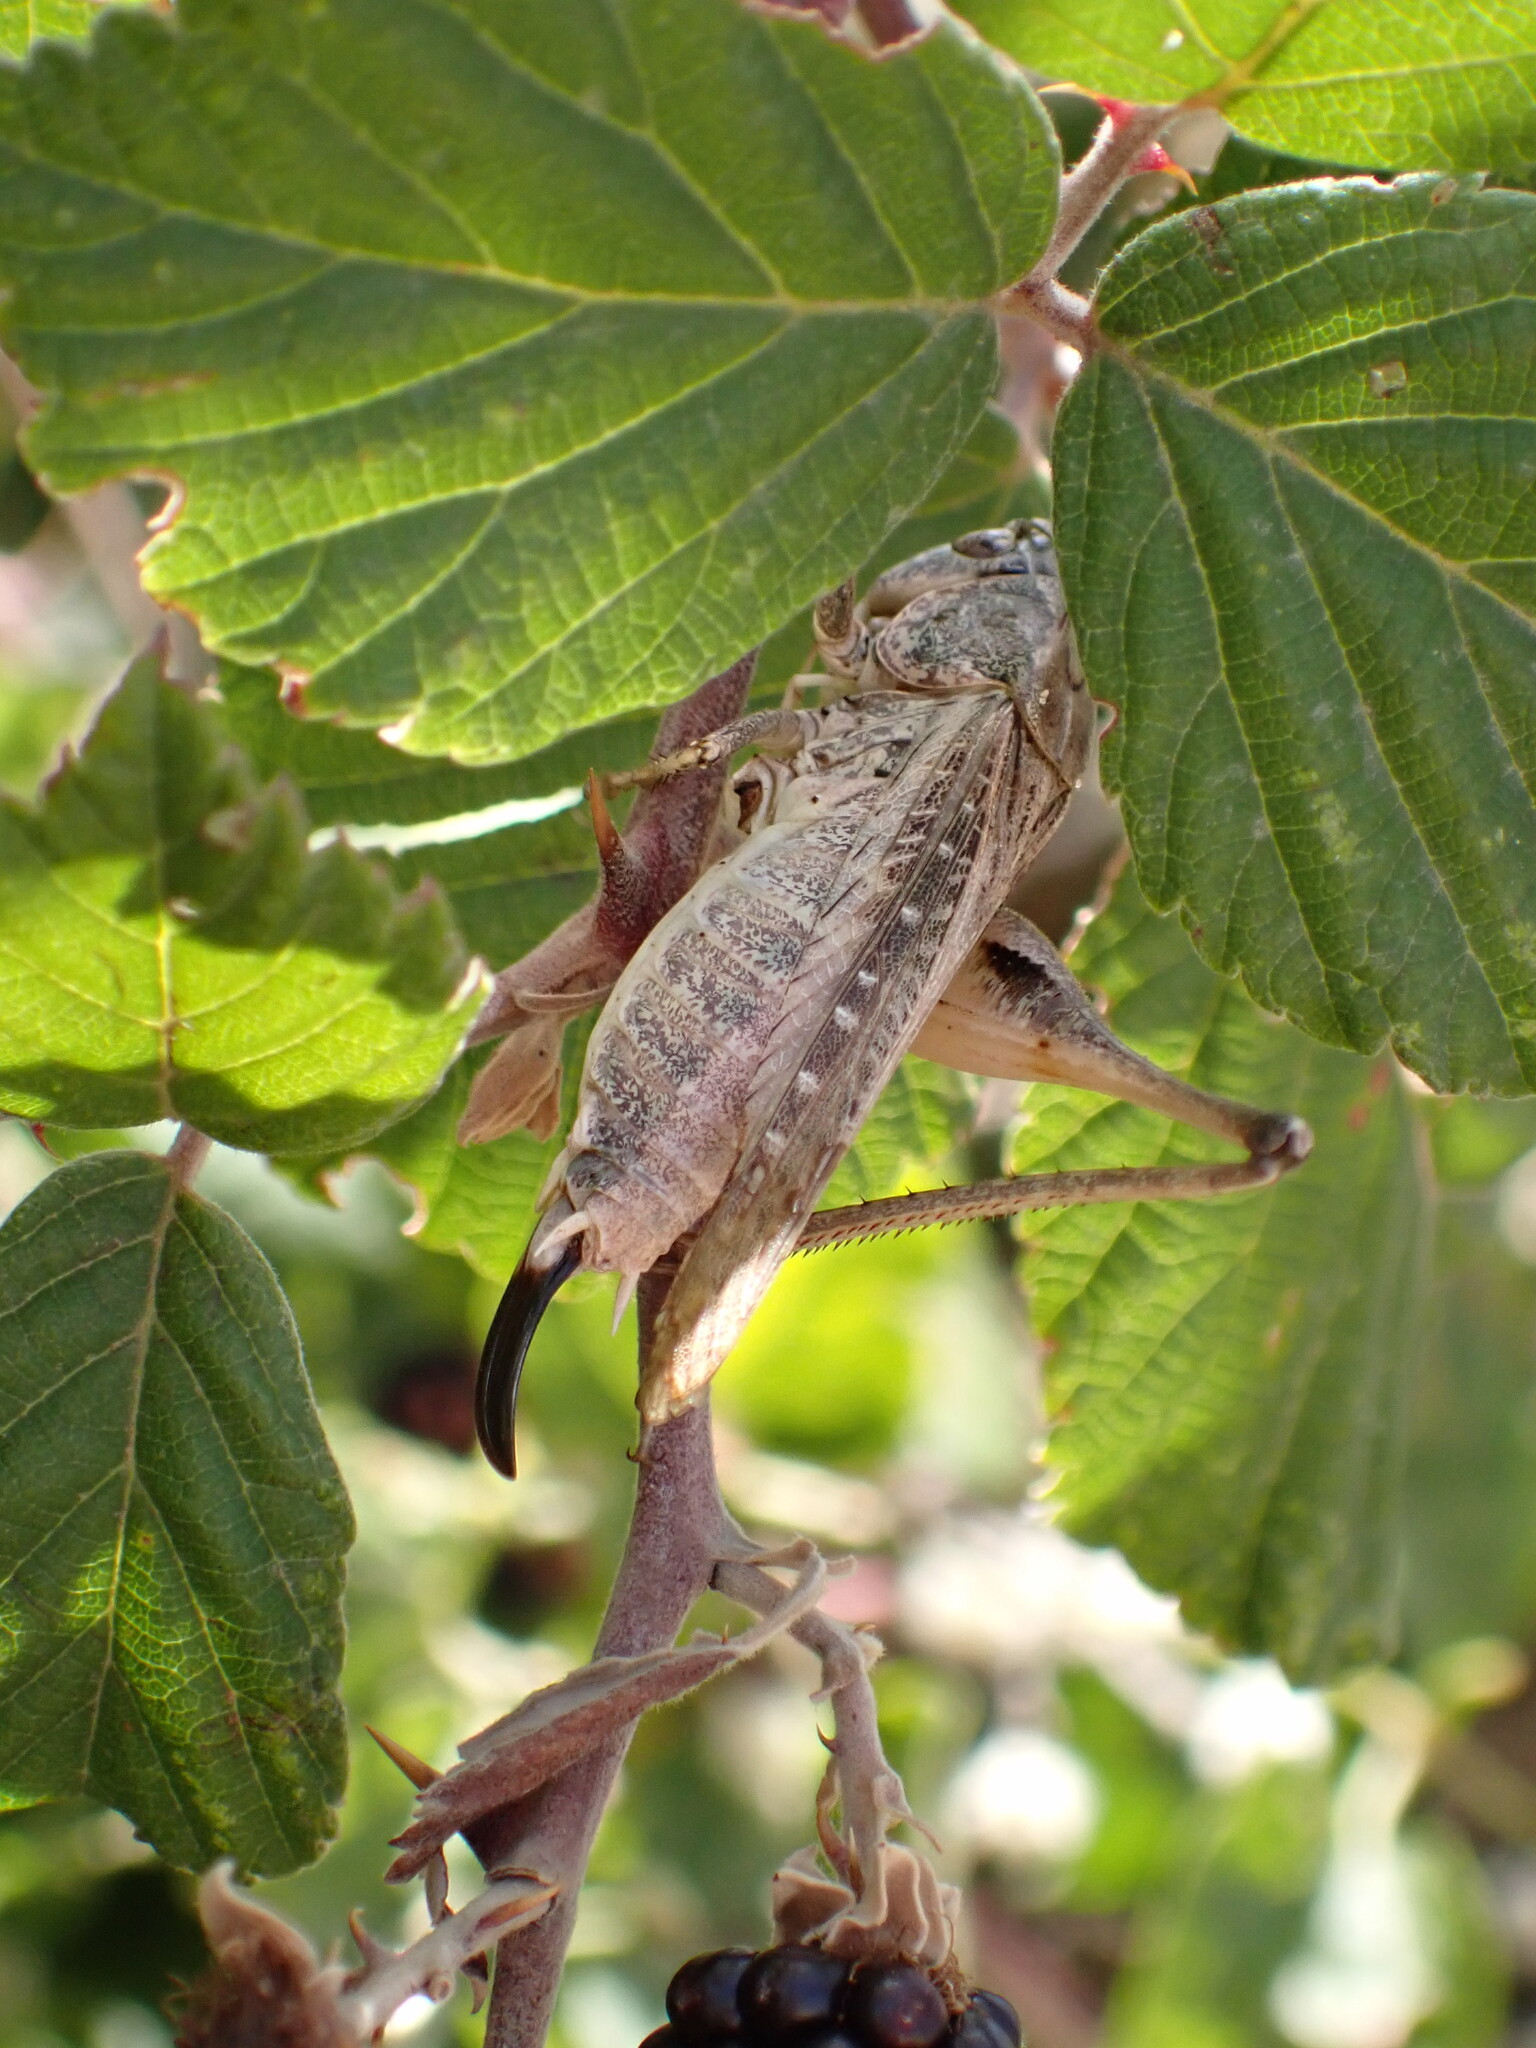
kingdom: Animalia
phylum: Arthropoda
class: Insecta
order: Orthoptera
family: Tettigoniidae
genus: Platycleis
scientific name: Platycleis albopunctata
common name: Grey bush-cricket
